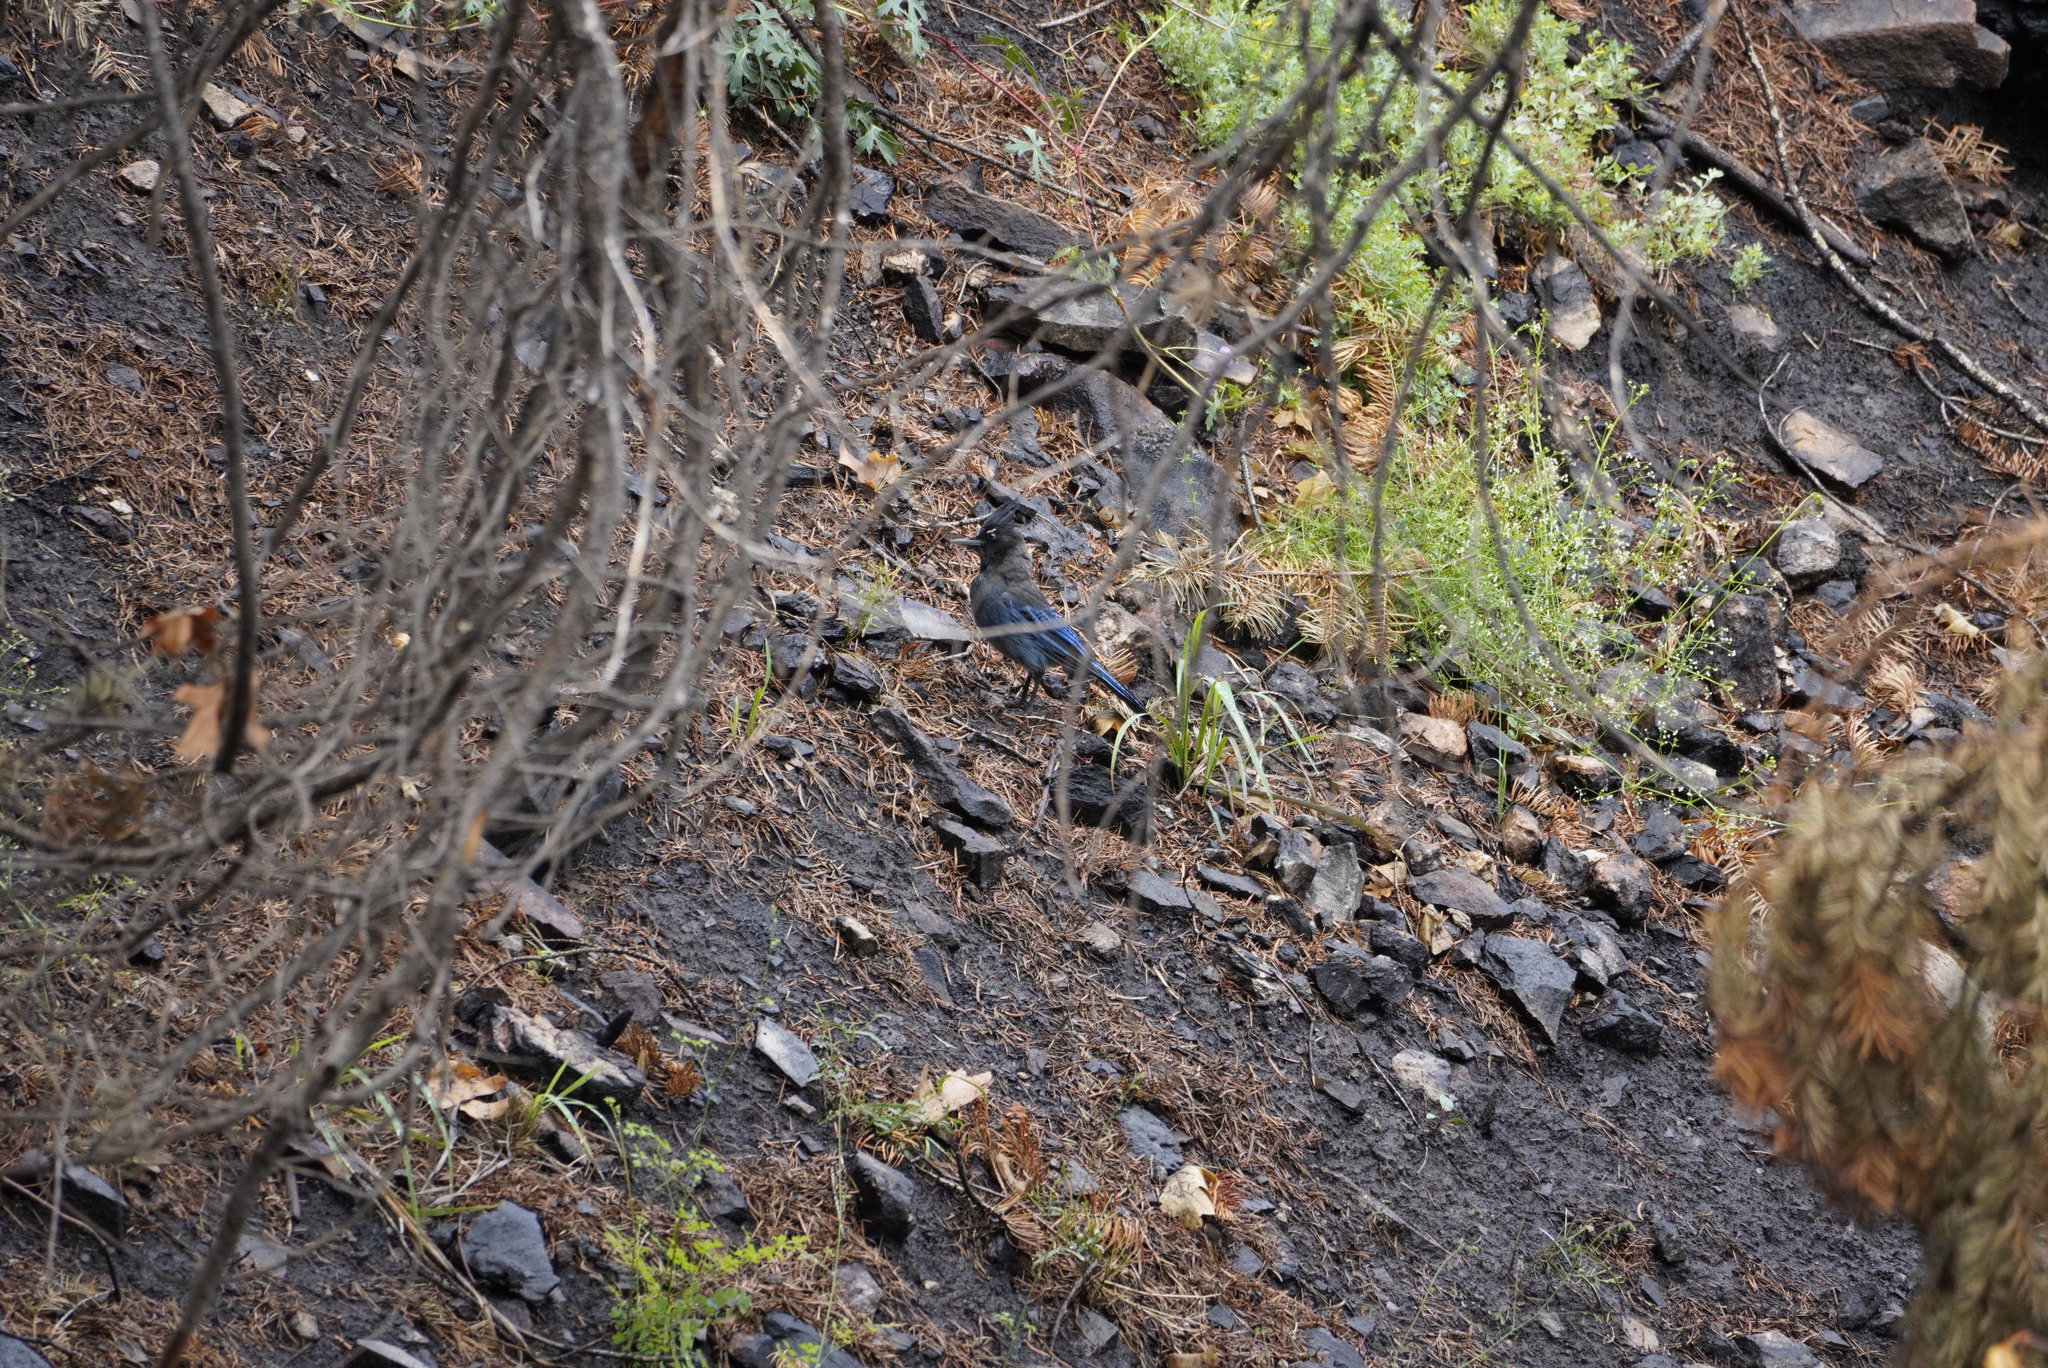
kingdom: Animalia
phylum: Chordata
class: Aves
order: Passeriformes
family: Corvidae
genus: Cyanocitta
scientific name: Cyanocitta stelleri
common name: Steller's jay
